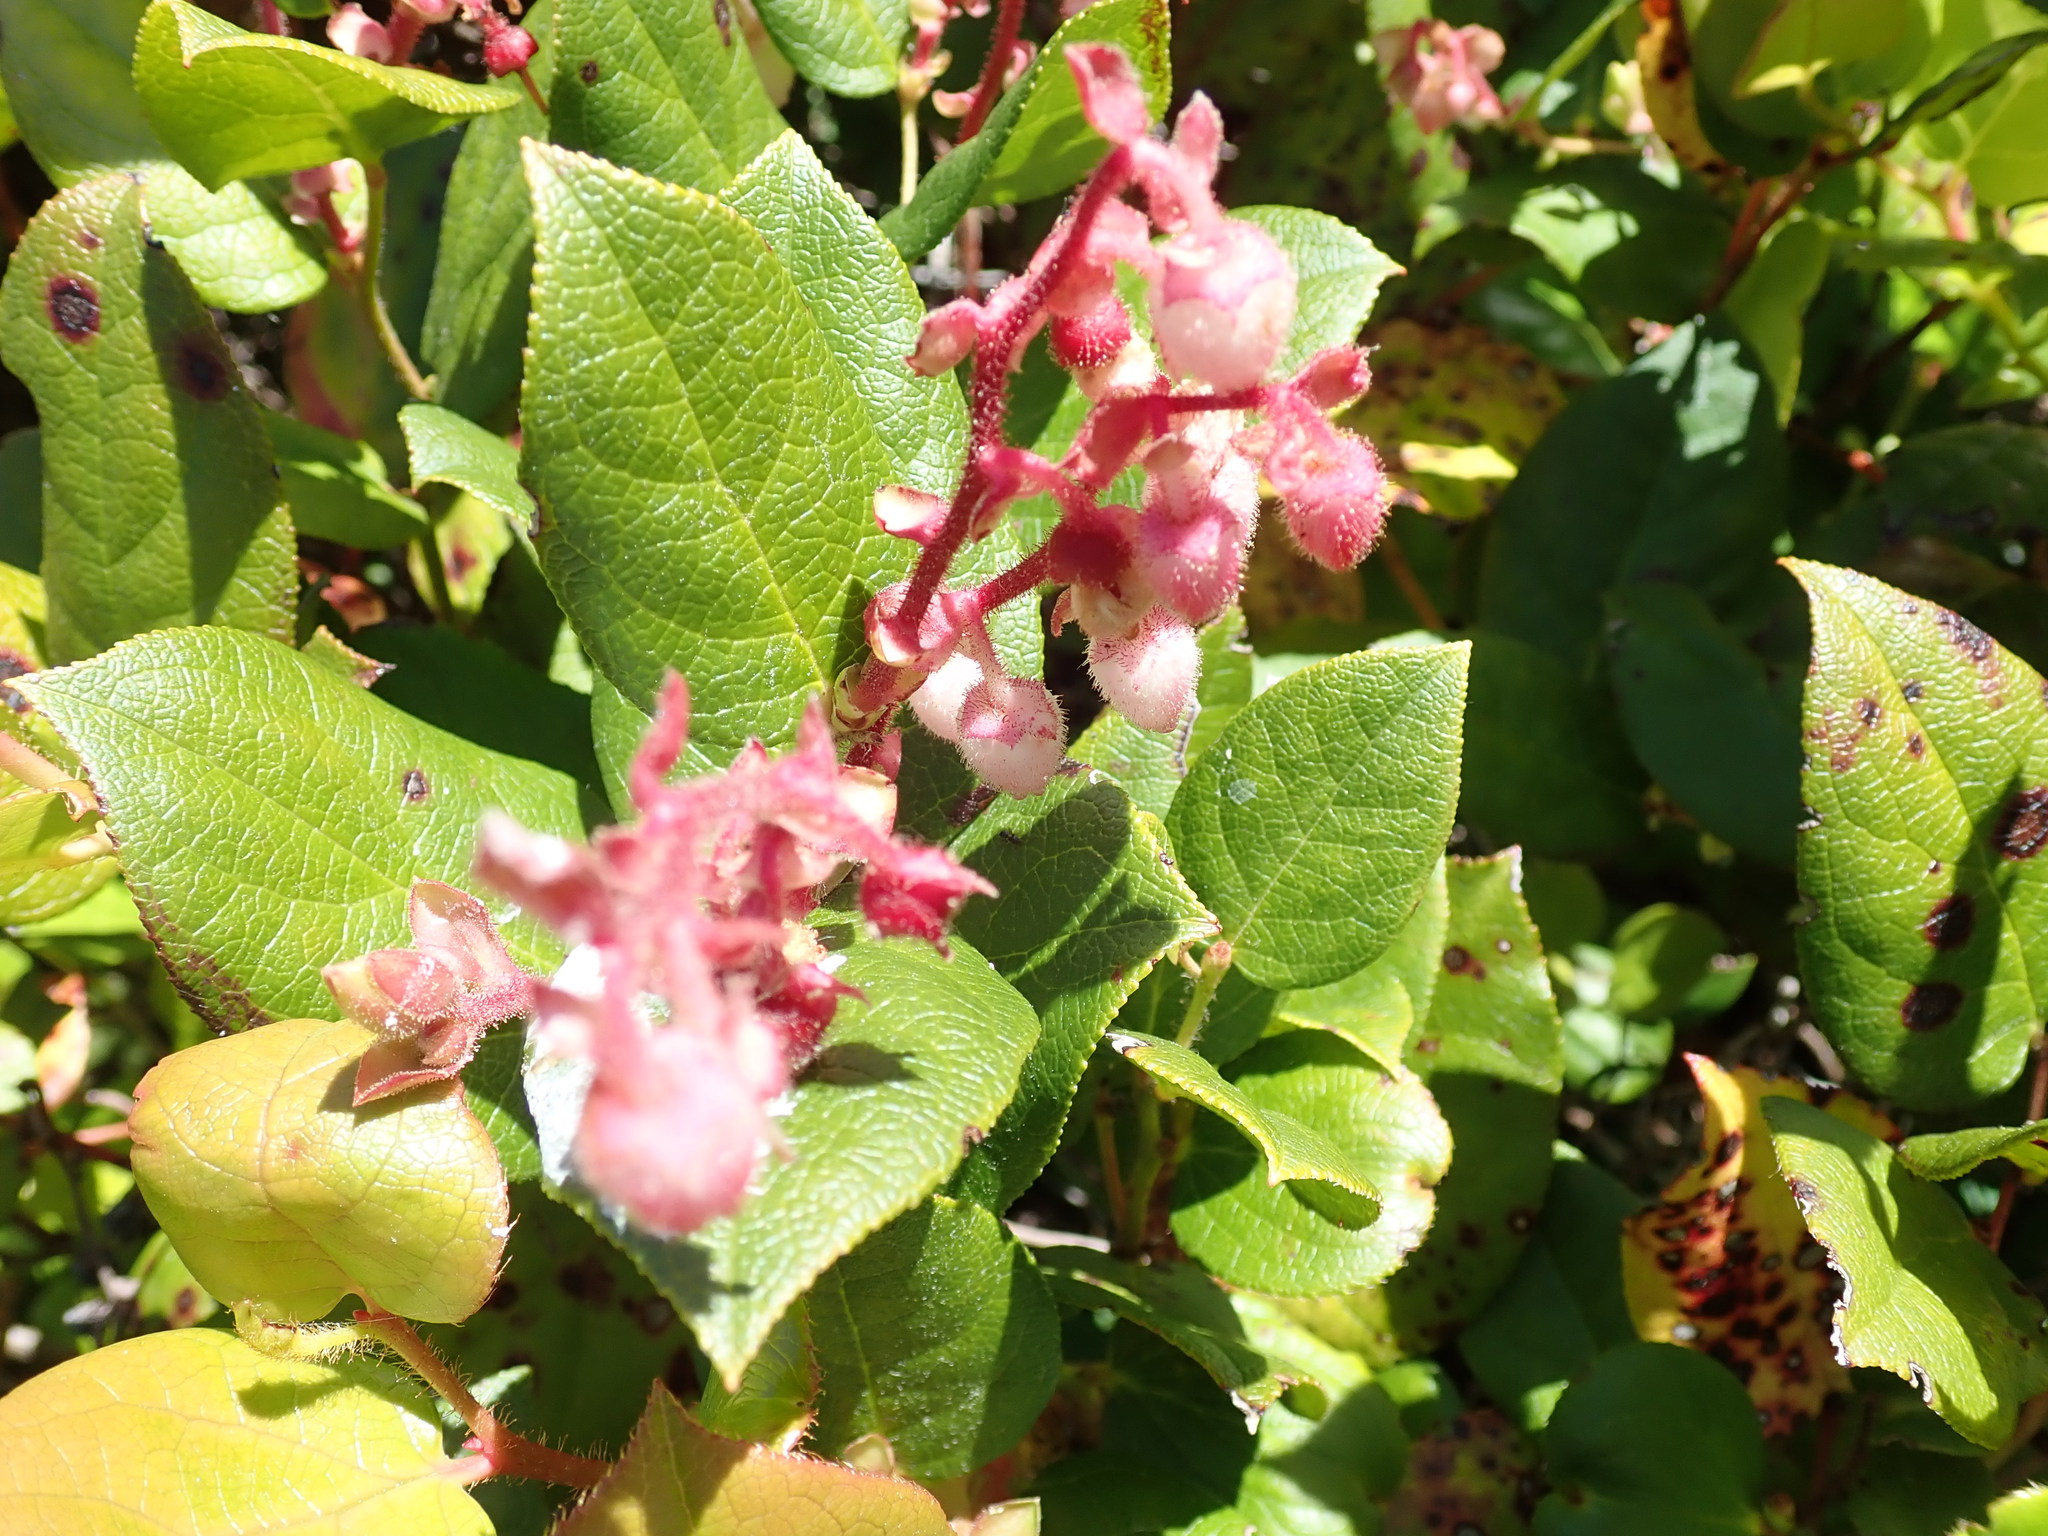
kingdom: Plantae
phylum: Tracheophyta
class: Magnoliopsida
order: Ericales
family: Ericaceae
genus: Gaultheria
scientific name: Gaultheria shallon
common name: Shallon
